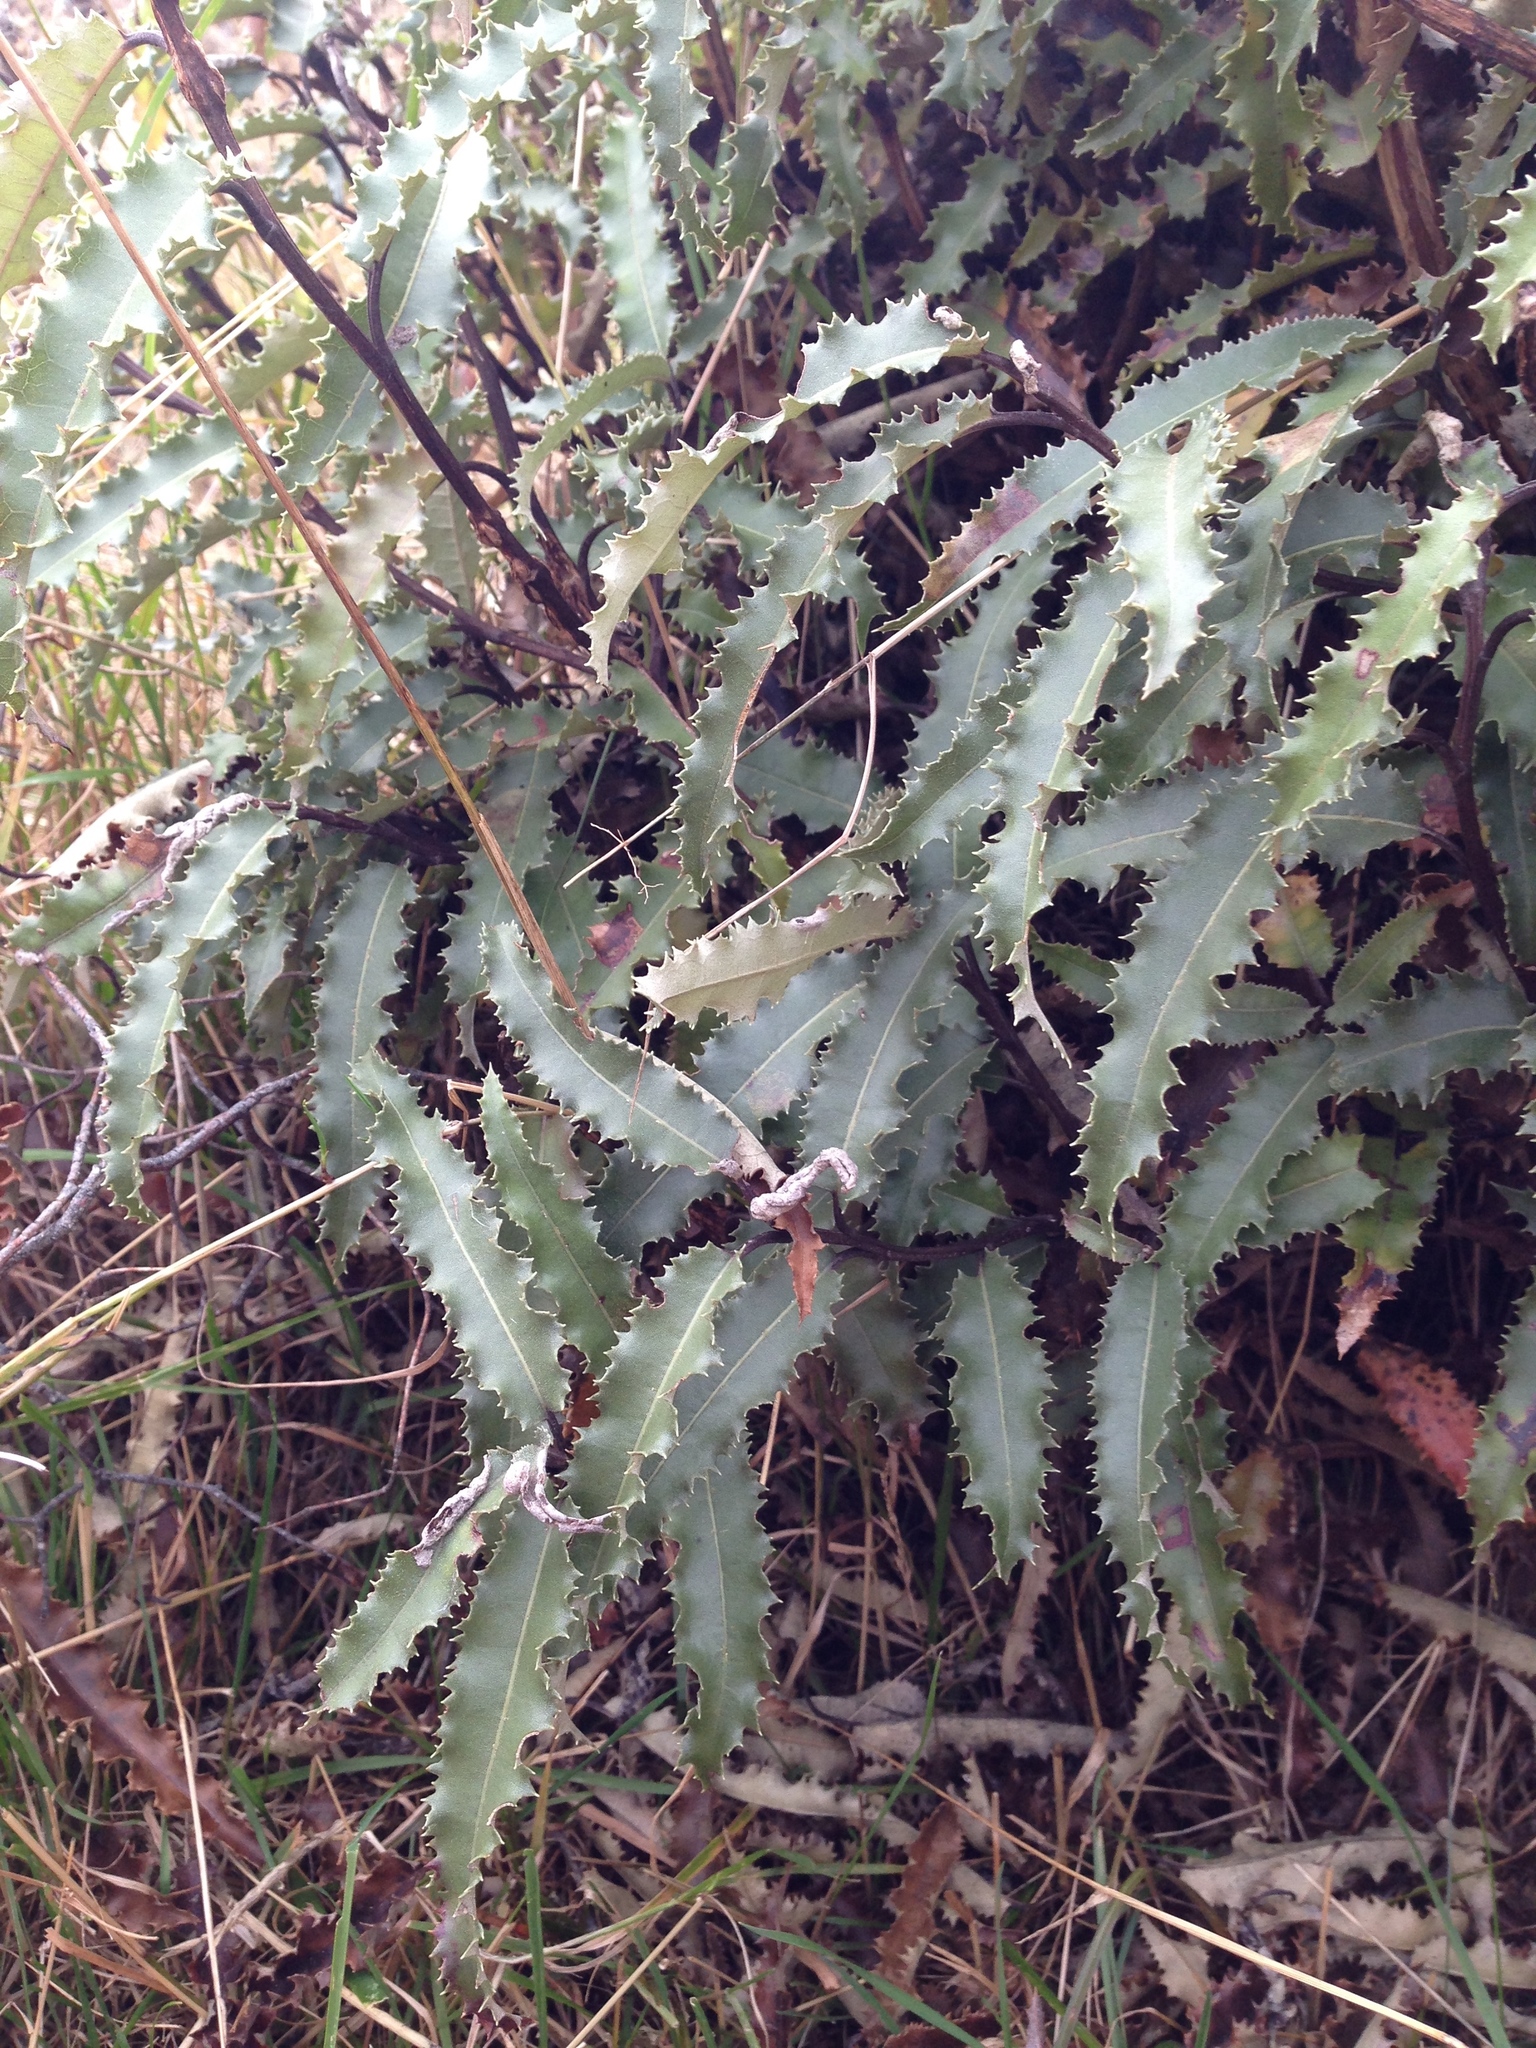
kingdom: Plantae
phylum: Tracheophyta
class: Magnoliopsida
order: Asterales
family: Asteraceae
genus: Olearia
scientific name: Olearia ilicifolia
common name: Maori-holly
